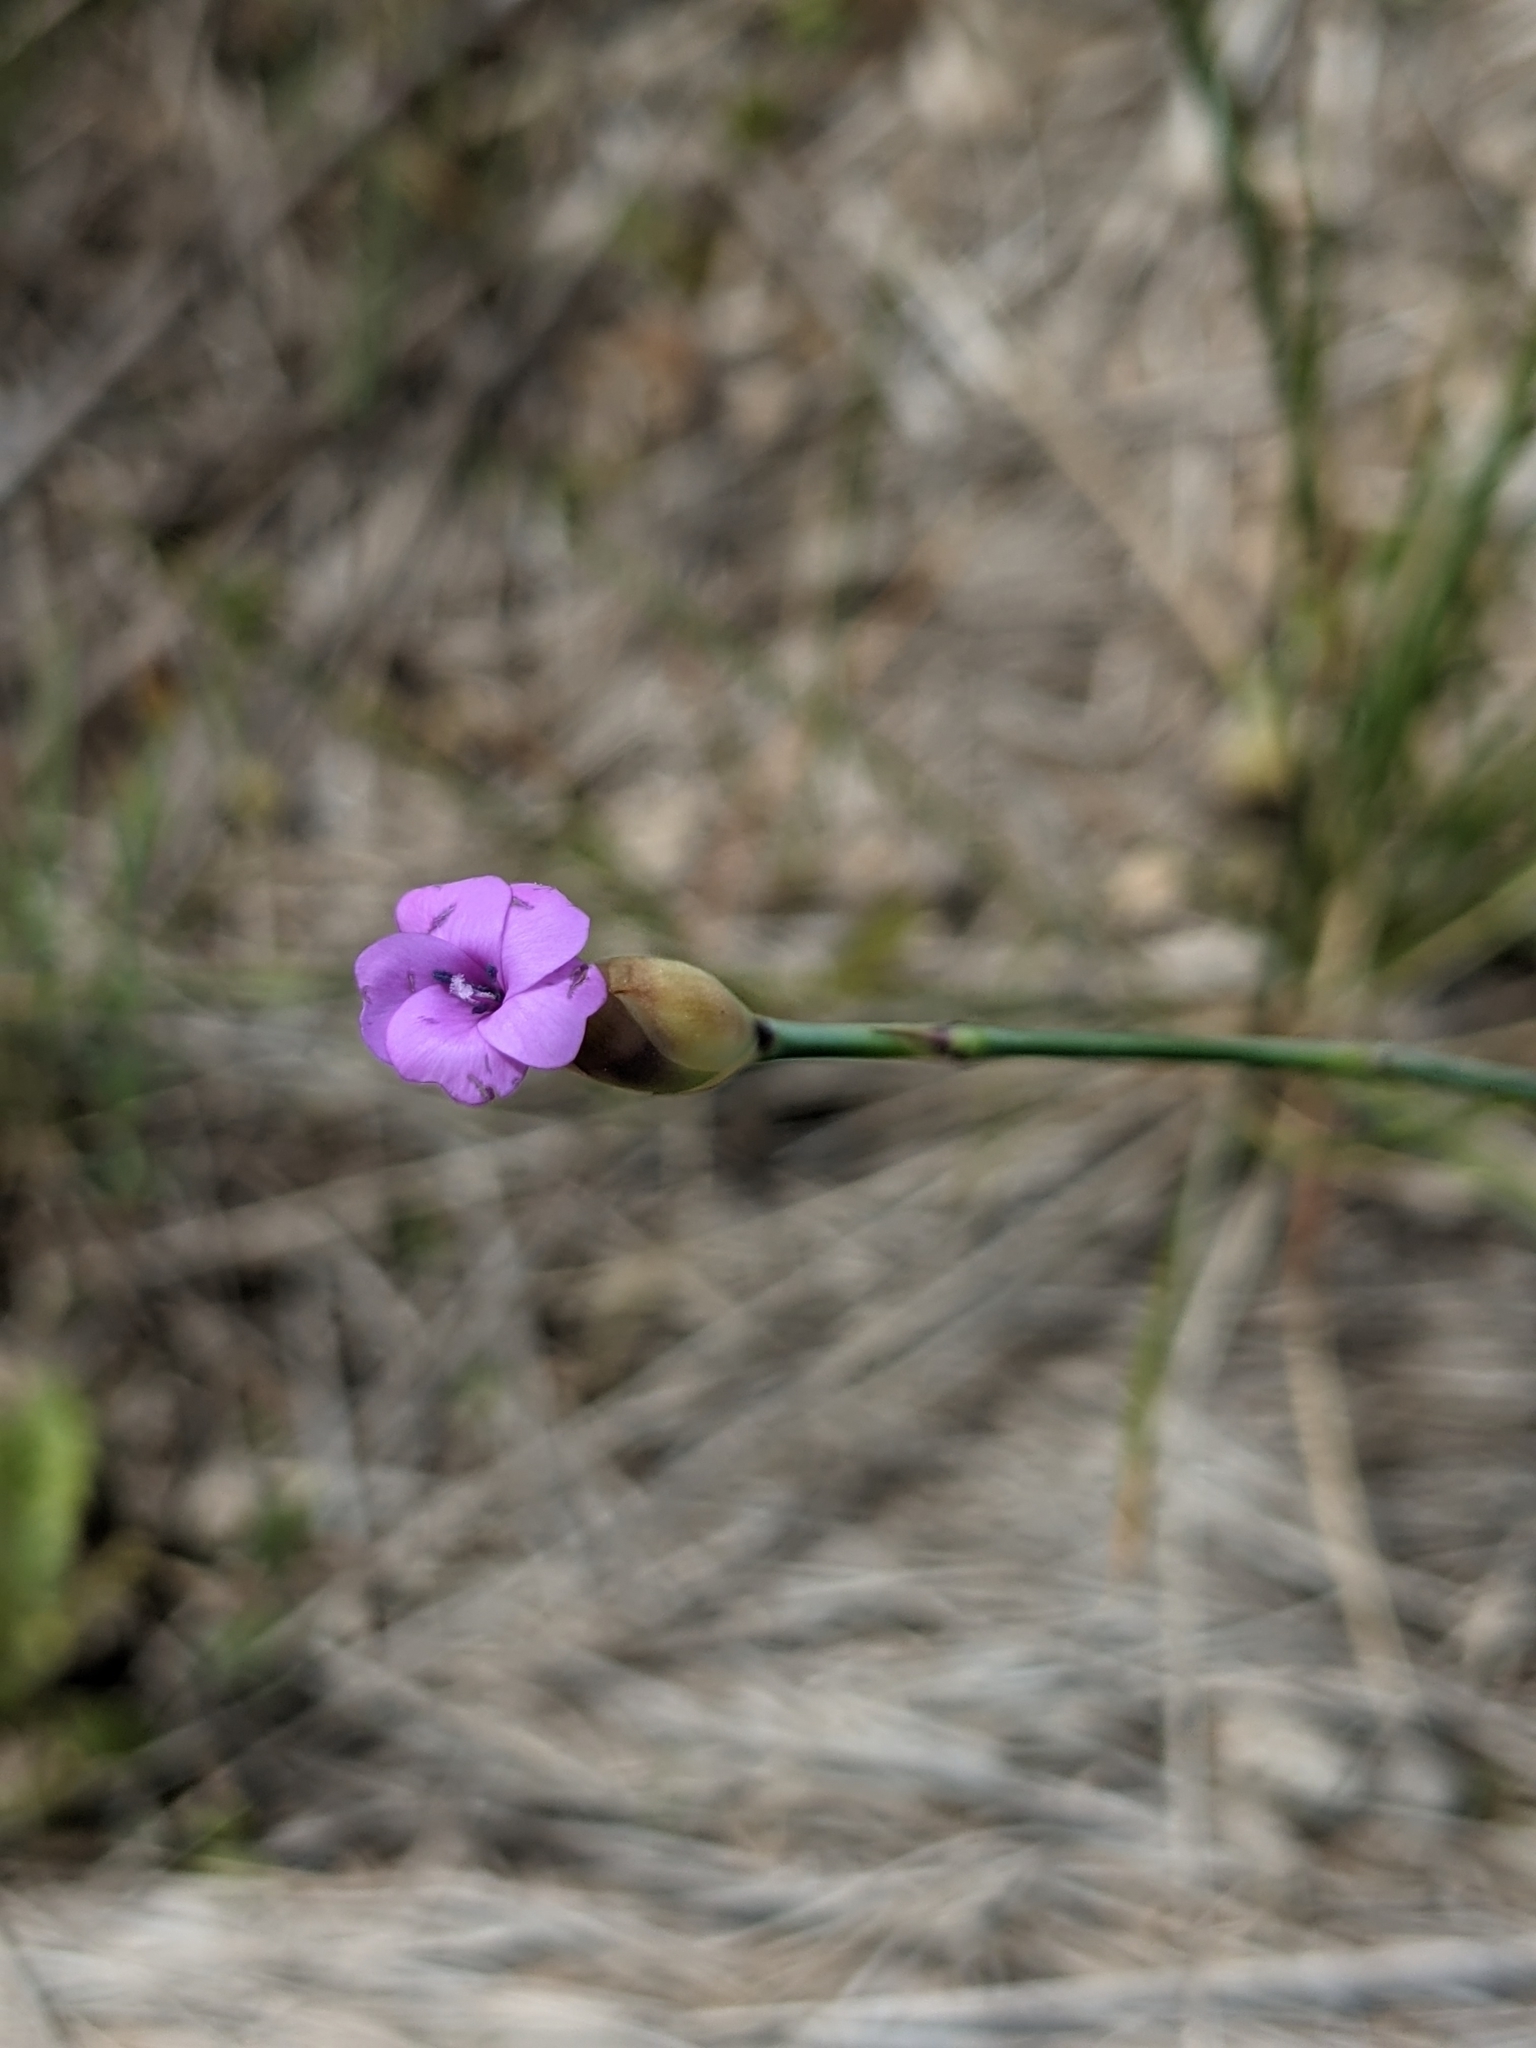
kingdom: Plantae
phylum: Tracheophyta
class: Magnoliopsida
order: Caryophyllales
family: Caryophyllaceae
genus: Petrorhagia
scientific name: Petrorhagia prolifera
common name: Proliferous pink
